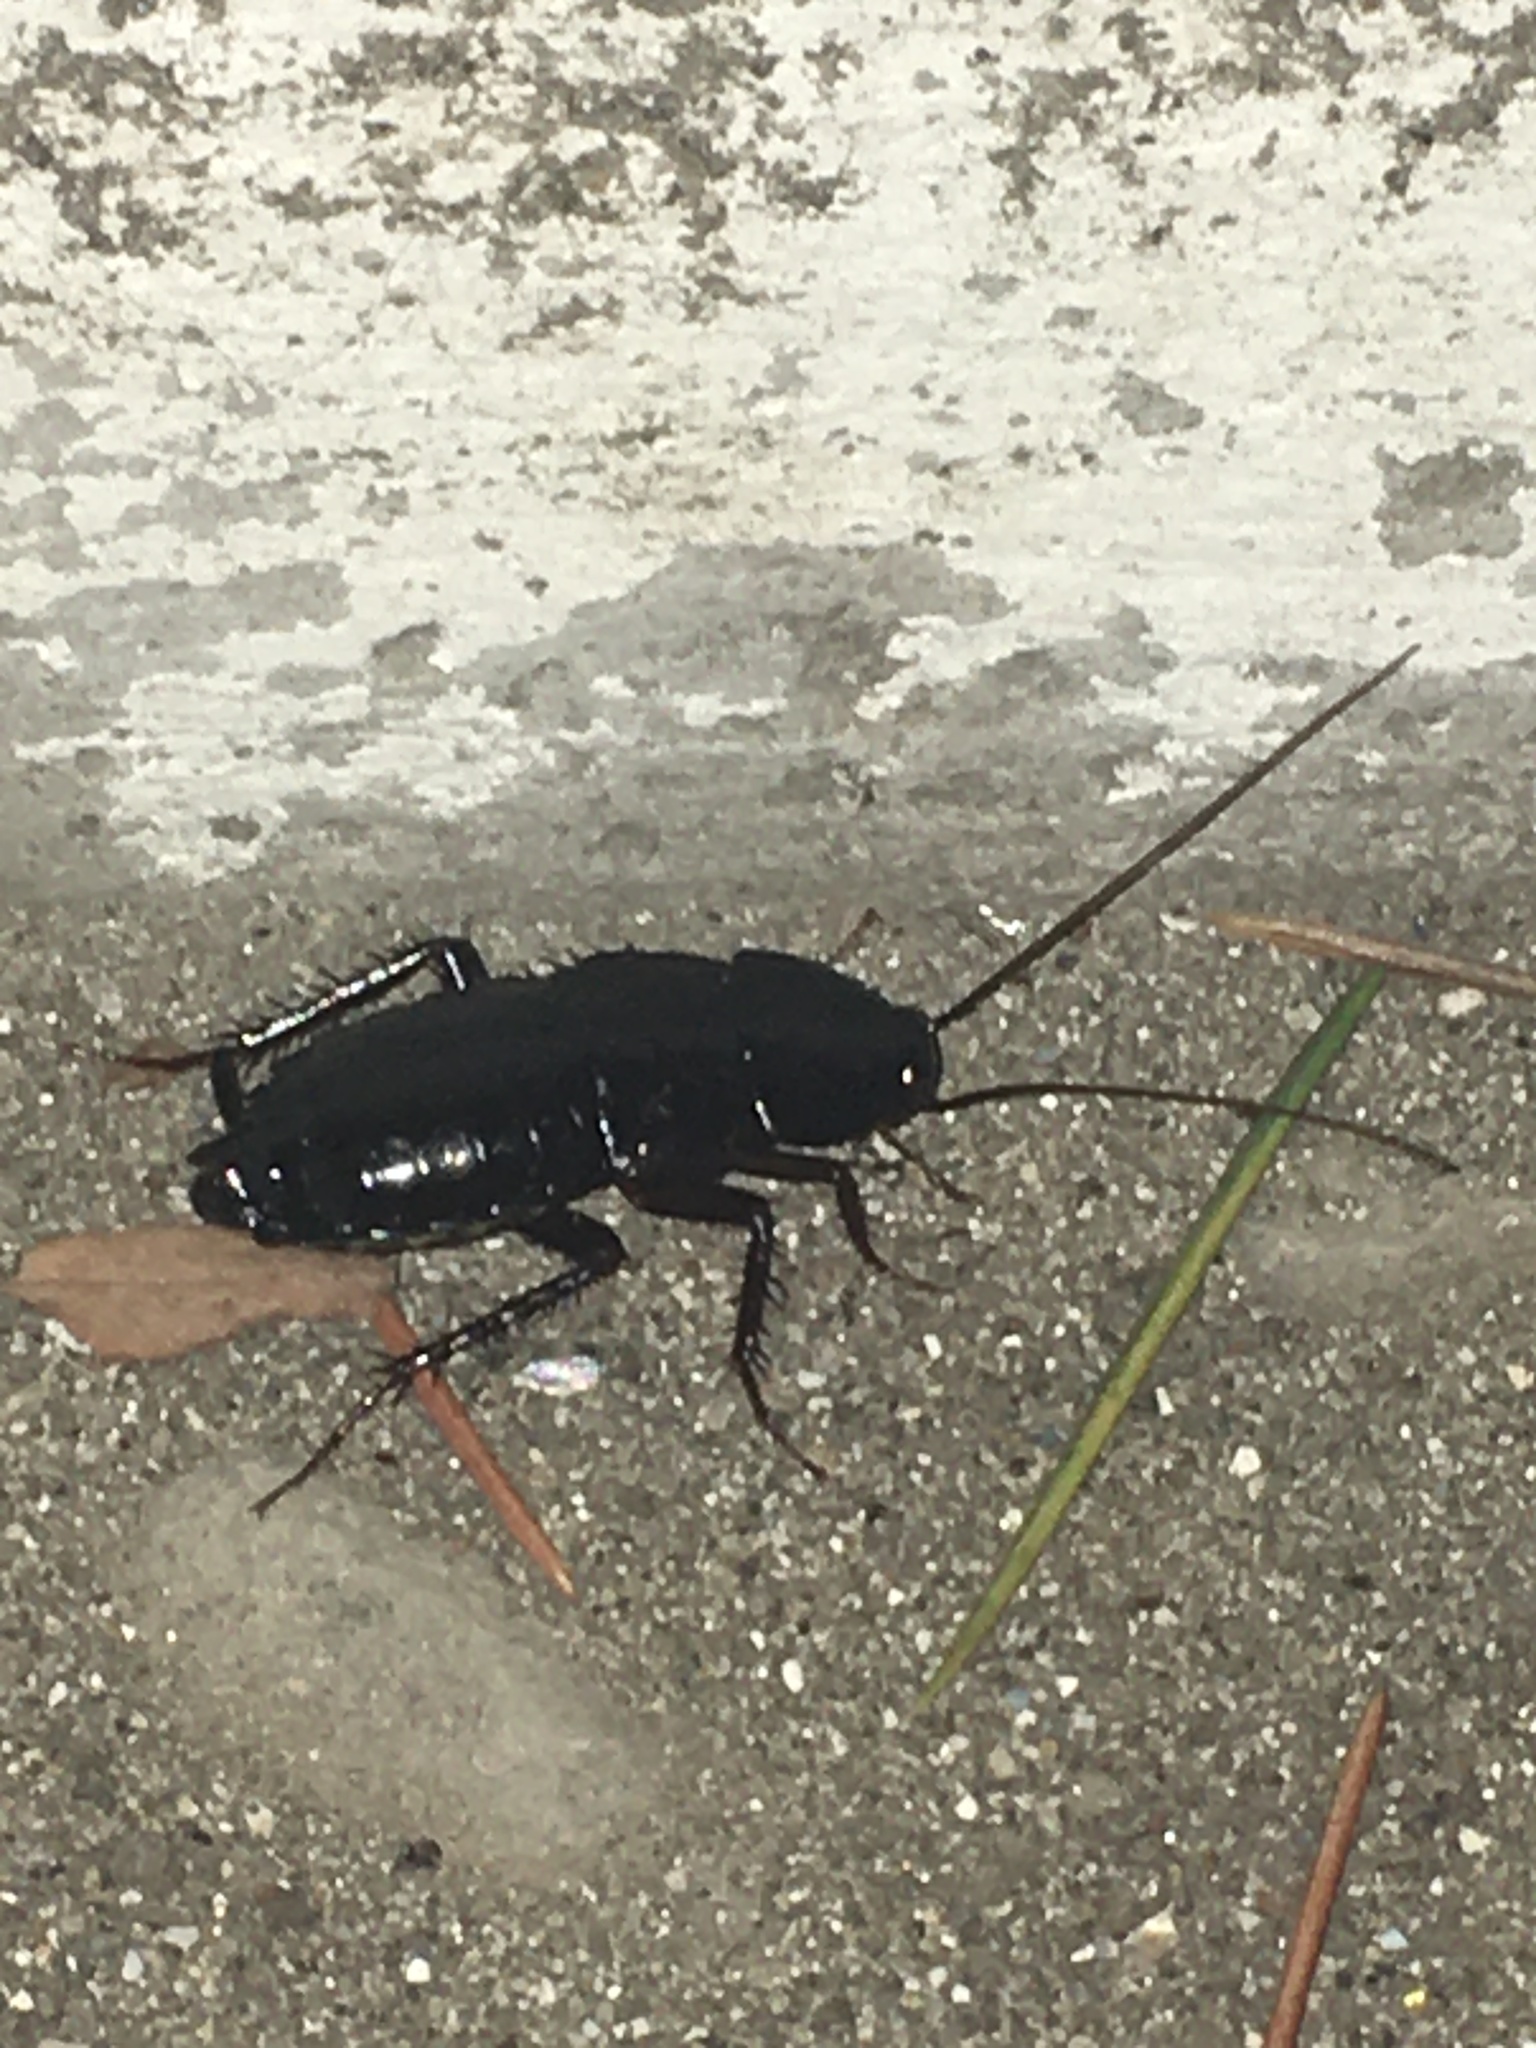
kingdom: Animalia
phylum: Arthropoda
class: Insecta
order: Blattodea
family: Blattidae
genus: Blatta
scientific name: Blatta orientalis
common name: Oriental cockroach
